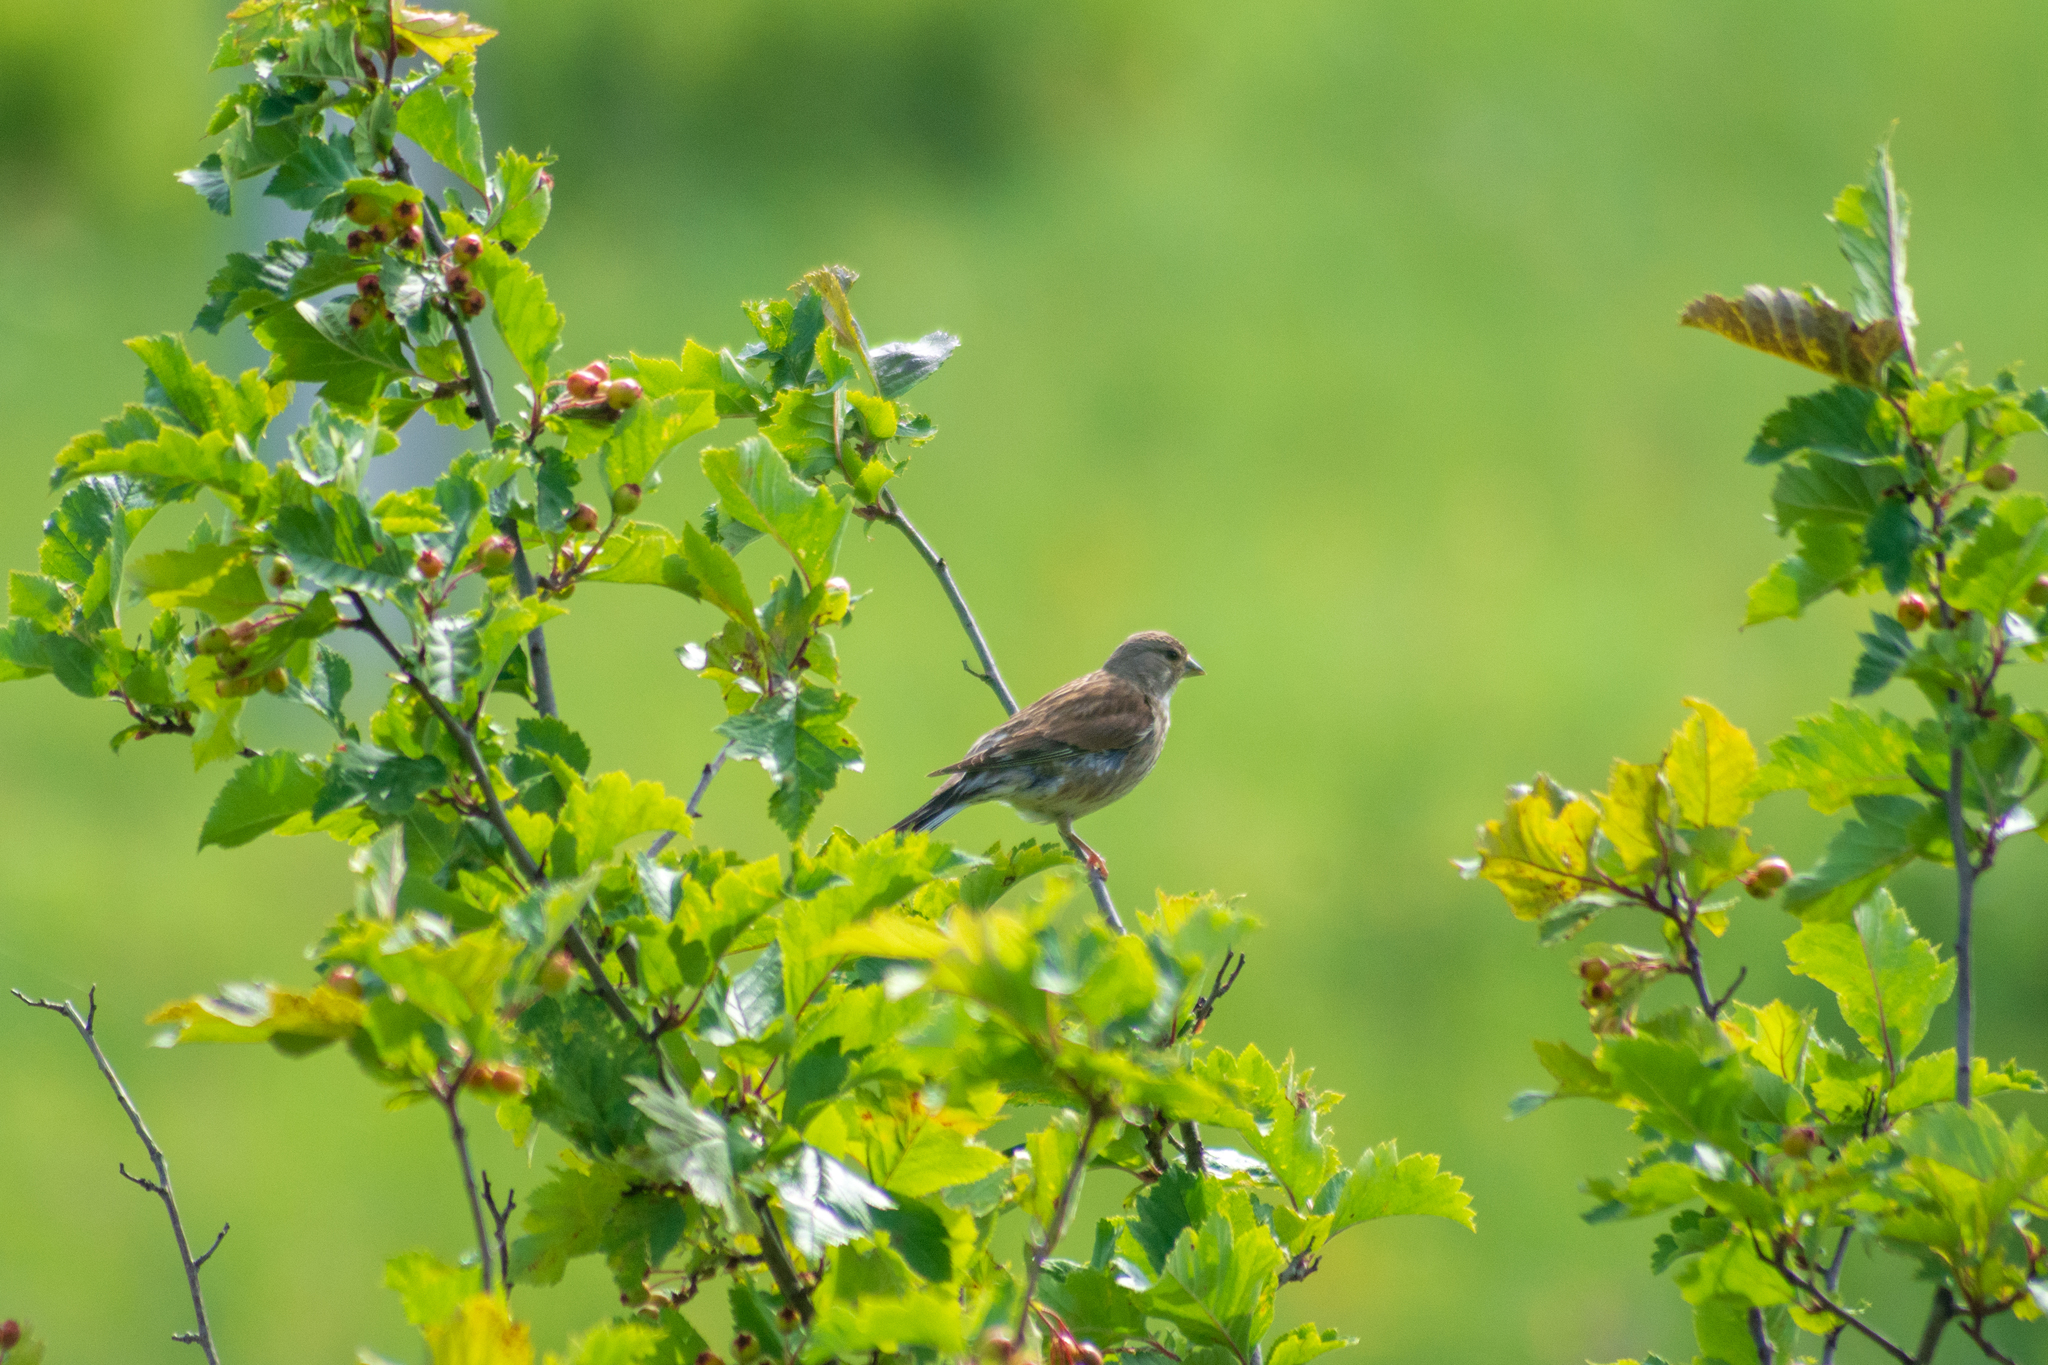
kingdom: Animalia
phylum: Chordata
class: Aves
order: Passeriformes
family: Fringillidae
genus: Linaria
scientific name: Linaria cannabina
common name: Common linnet
